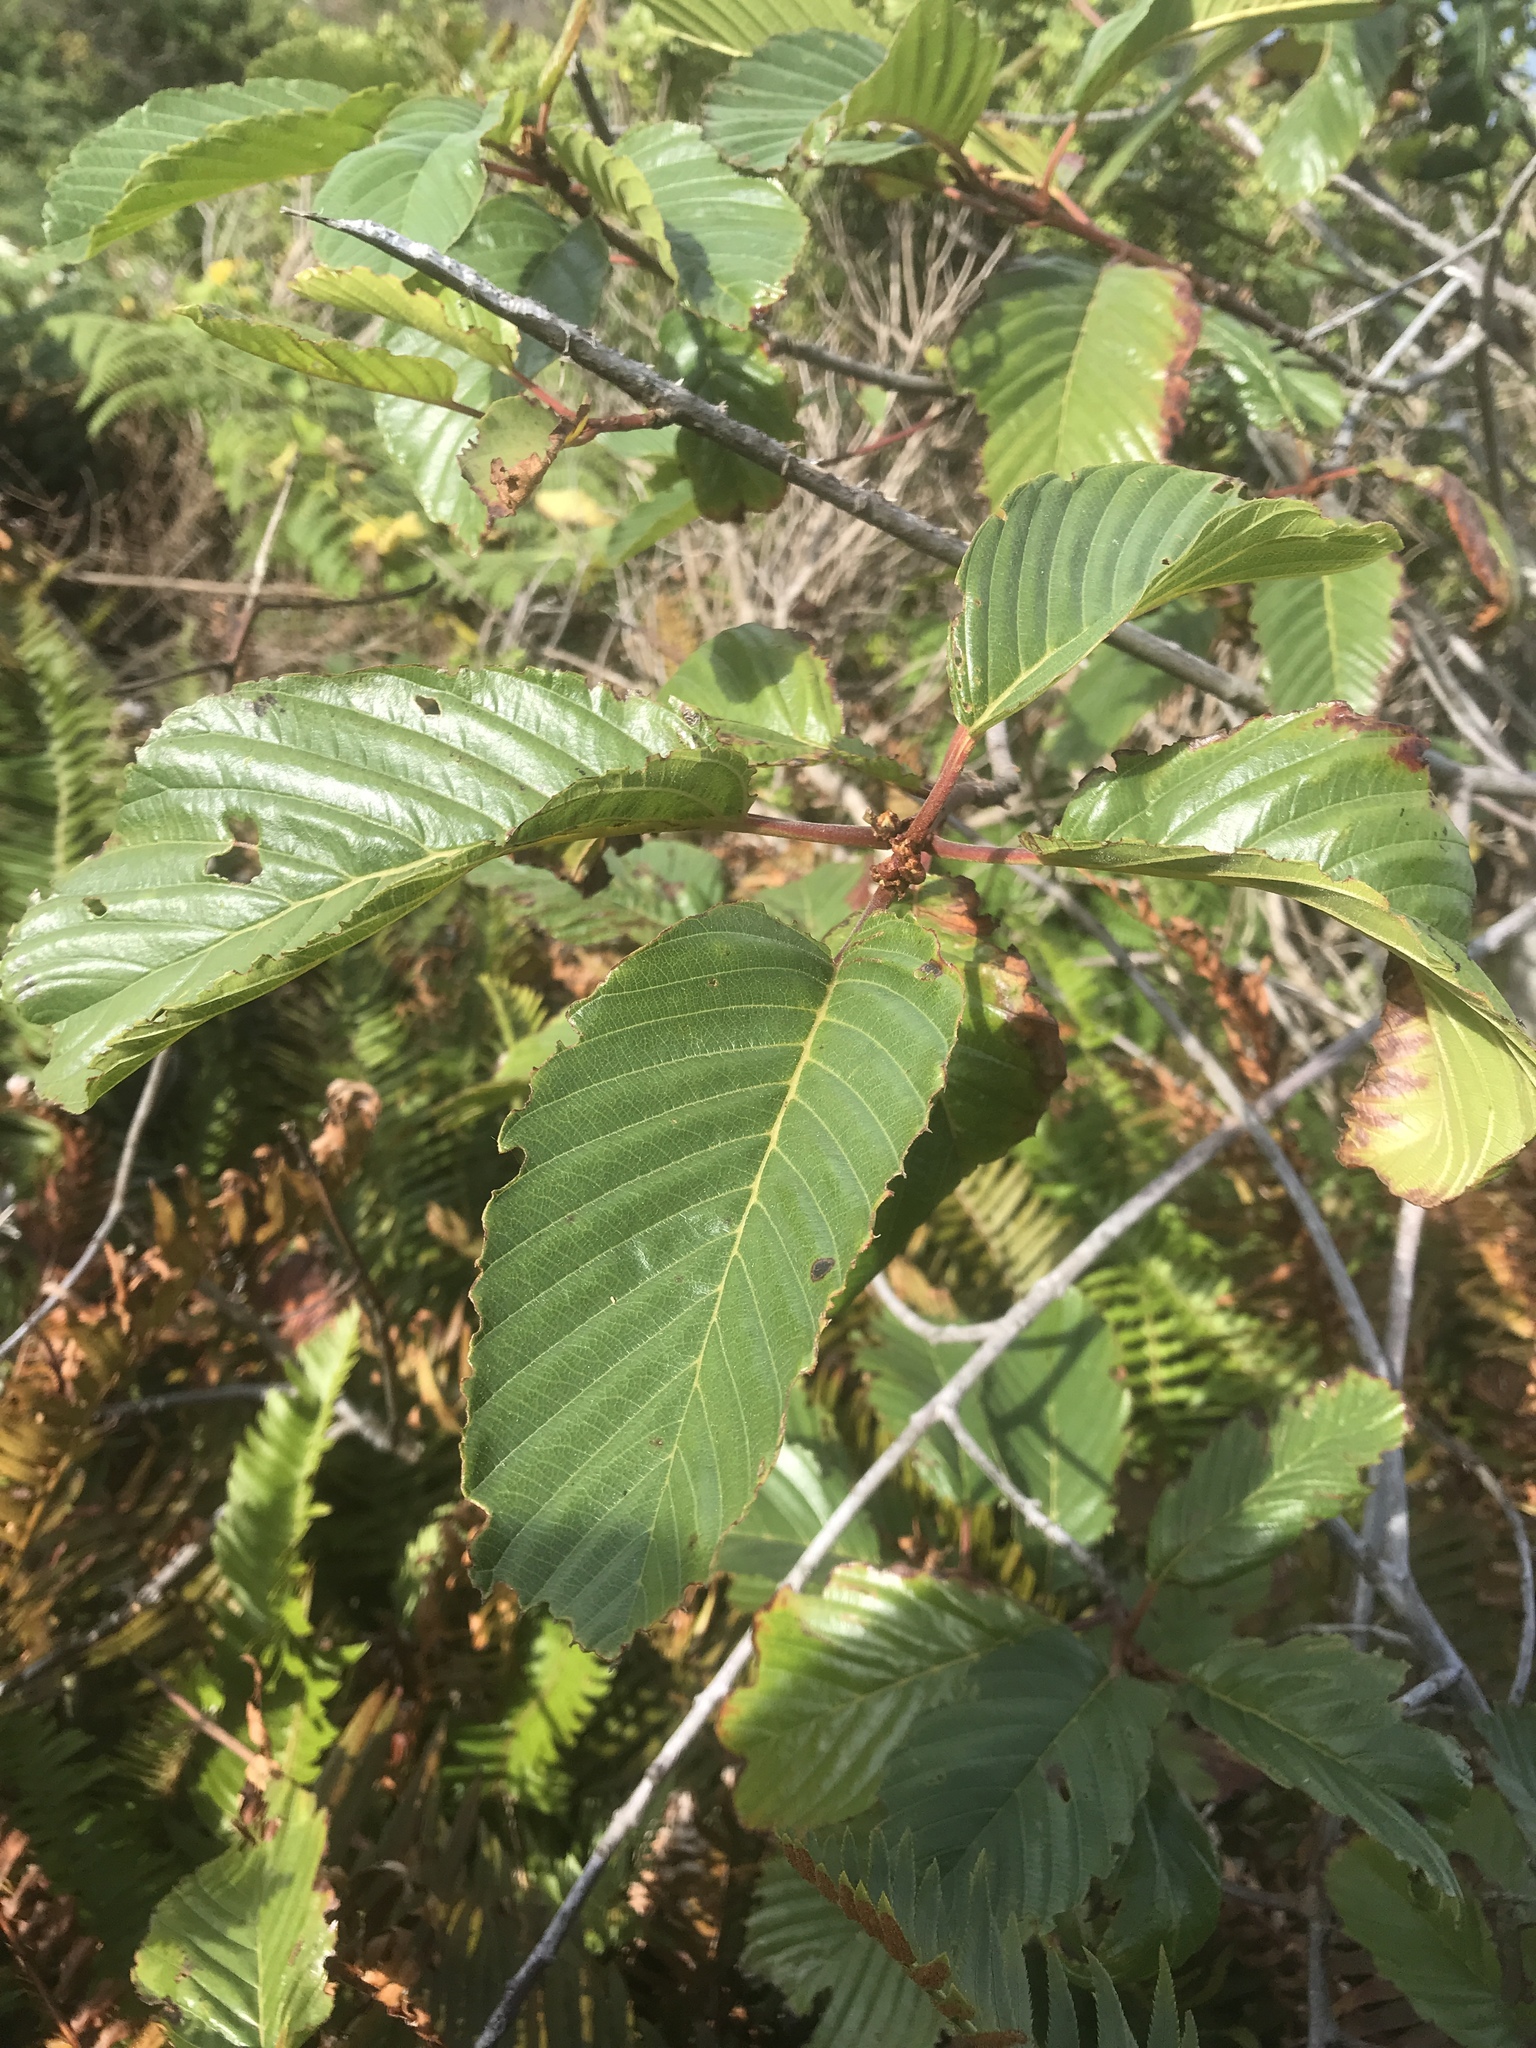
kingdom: Plantae
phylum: Tracheophyta
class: Magnoliopsida
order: Rosales
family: Rhamnaceae
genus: Frangula
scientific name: Frangula purshiana
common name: Cascara buckthorn
